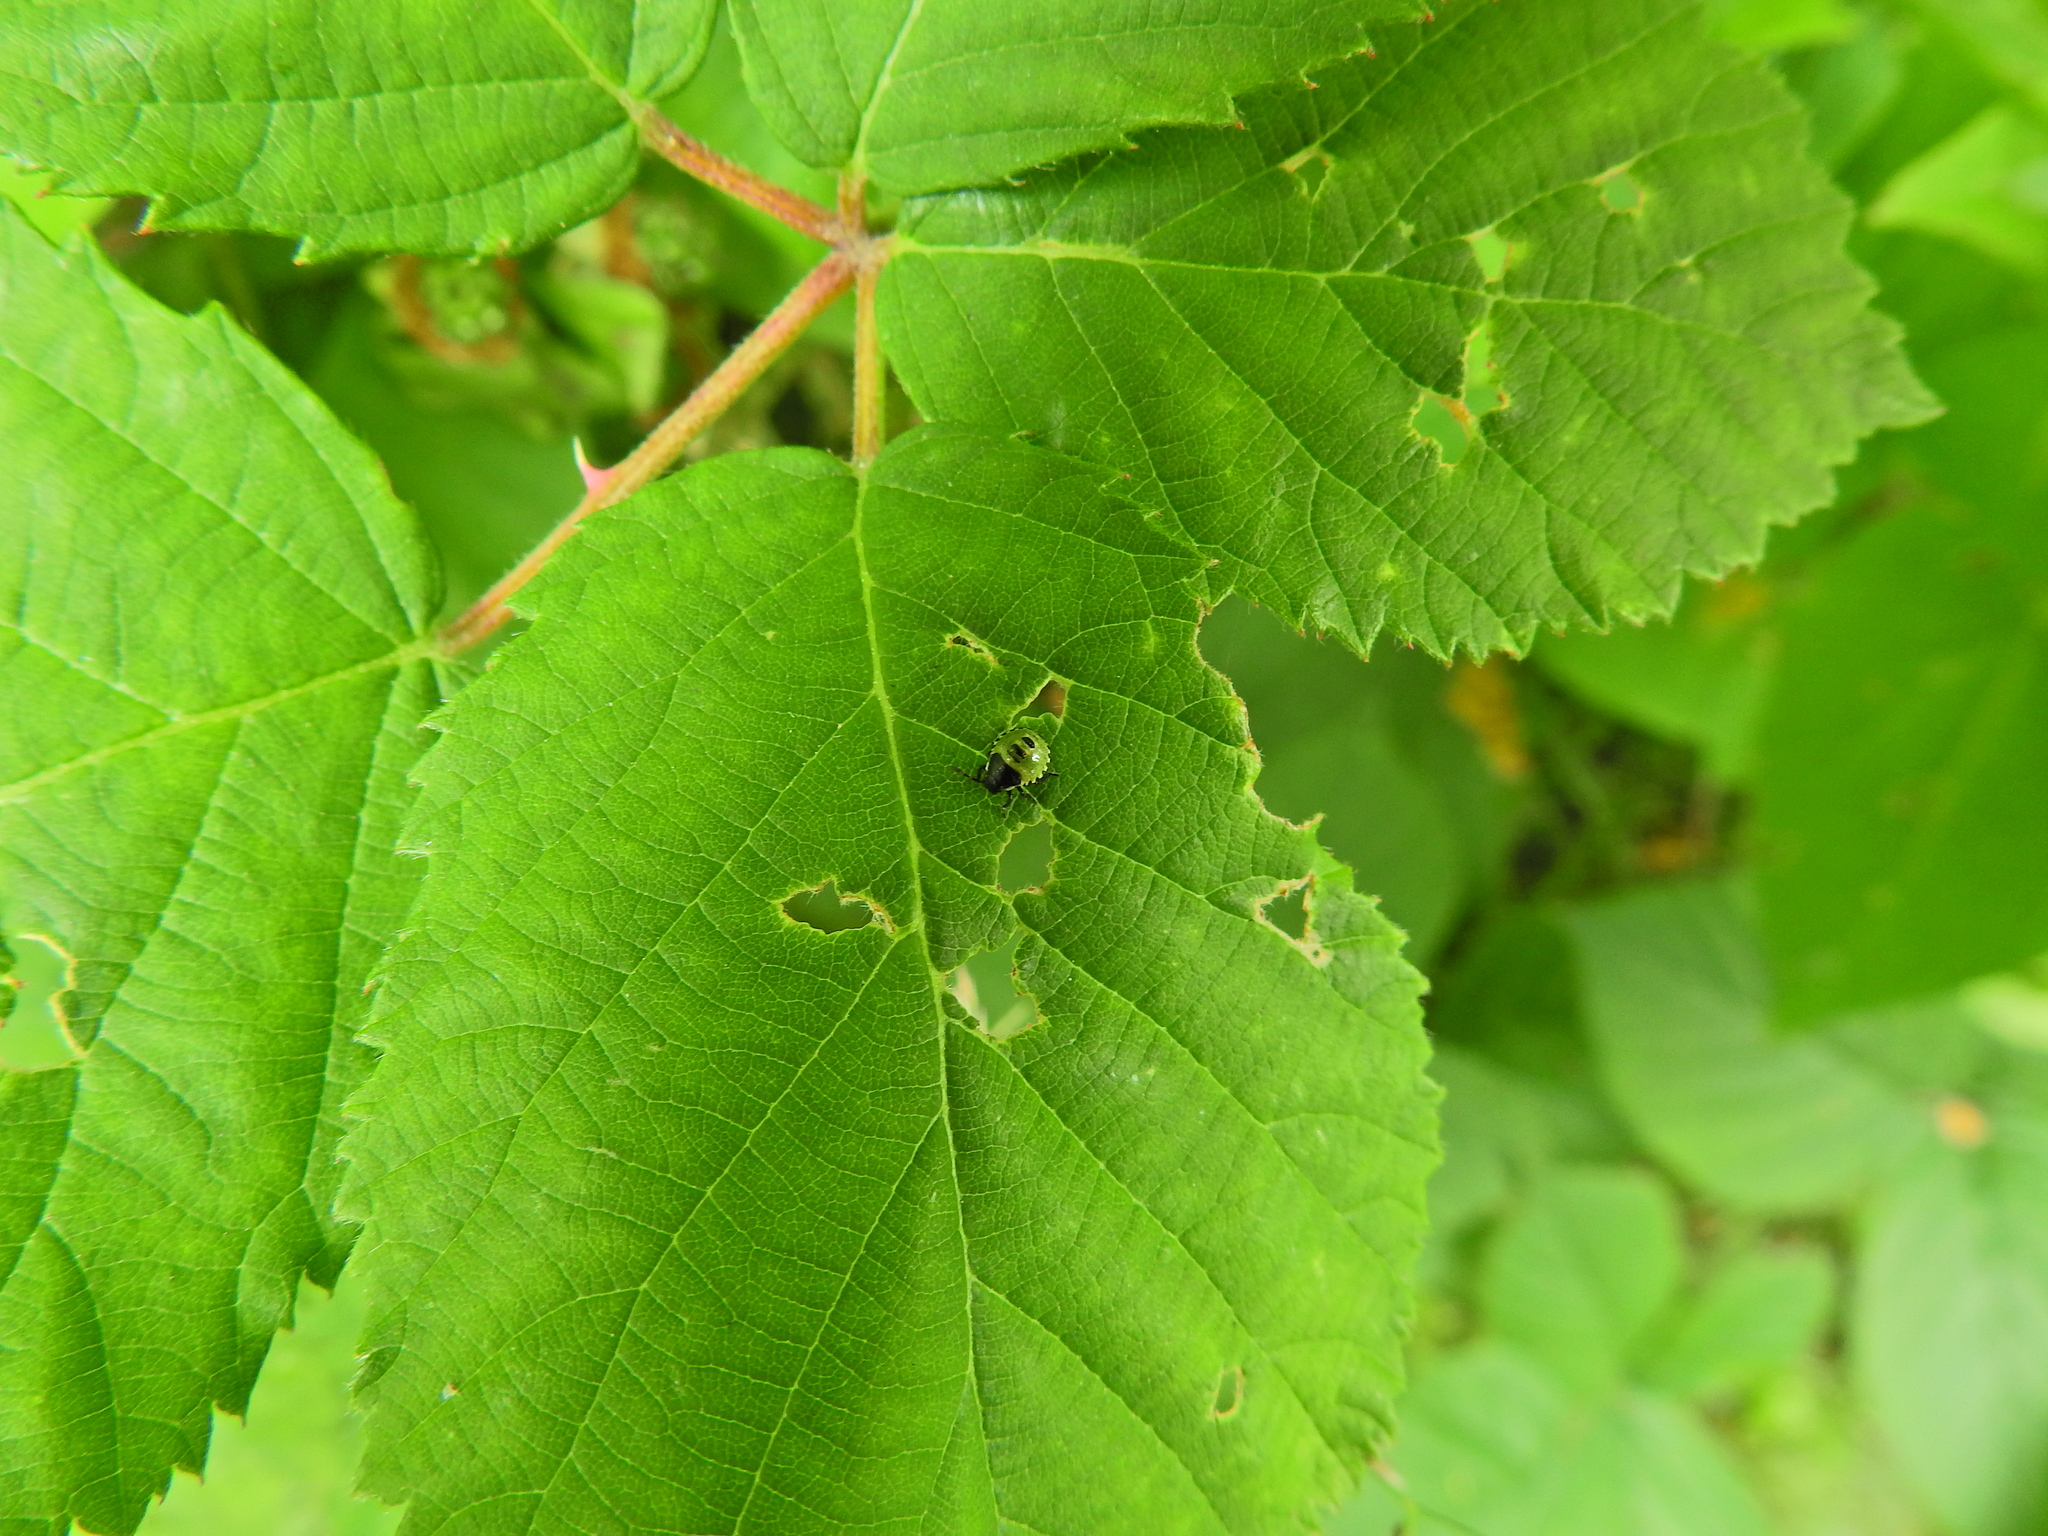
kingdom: Animalia
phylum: Arthropoda
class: Insecta
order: Hemiptera
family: Pentatomidae
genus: Palomena
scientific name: Palomena prasina
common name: Green shieldbug
